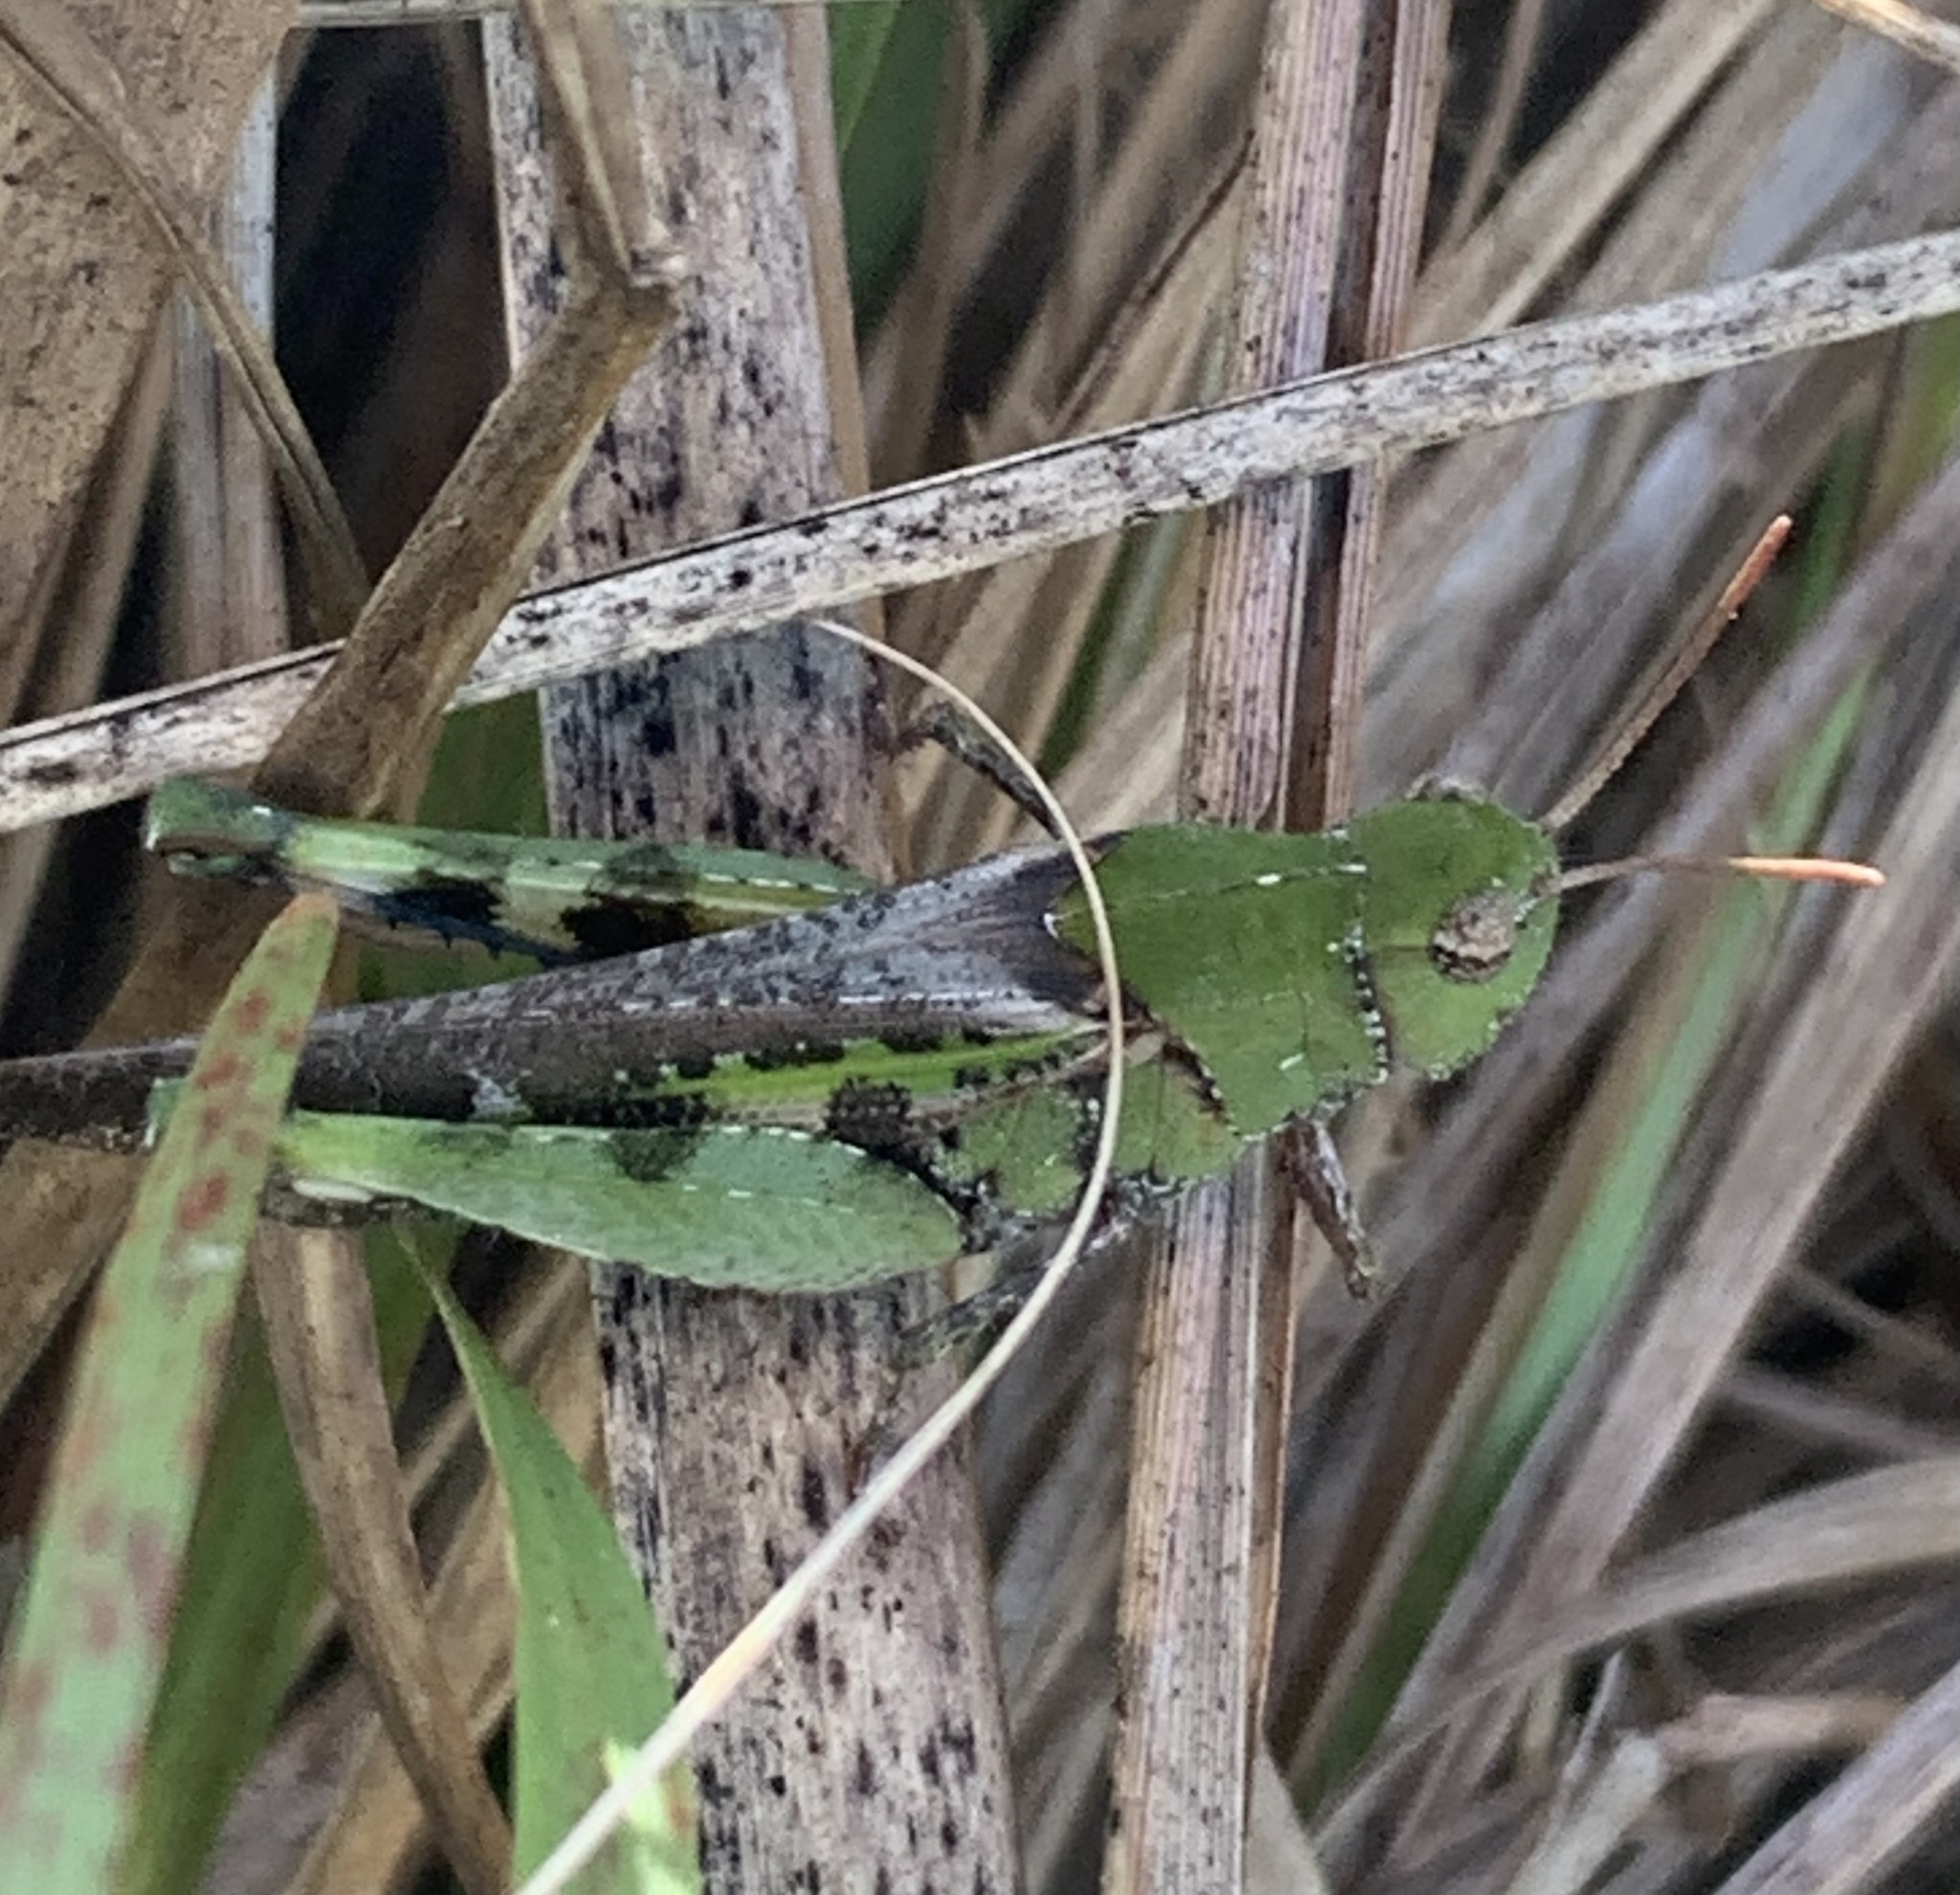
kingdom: Animalia
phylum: Arthropoda
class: Insecta
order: Orthoptera
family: Acrididae
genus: Chortophaga
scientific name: Chortophaga australior
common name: Southern green-striped grasshopper
